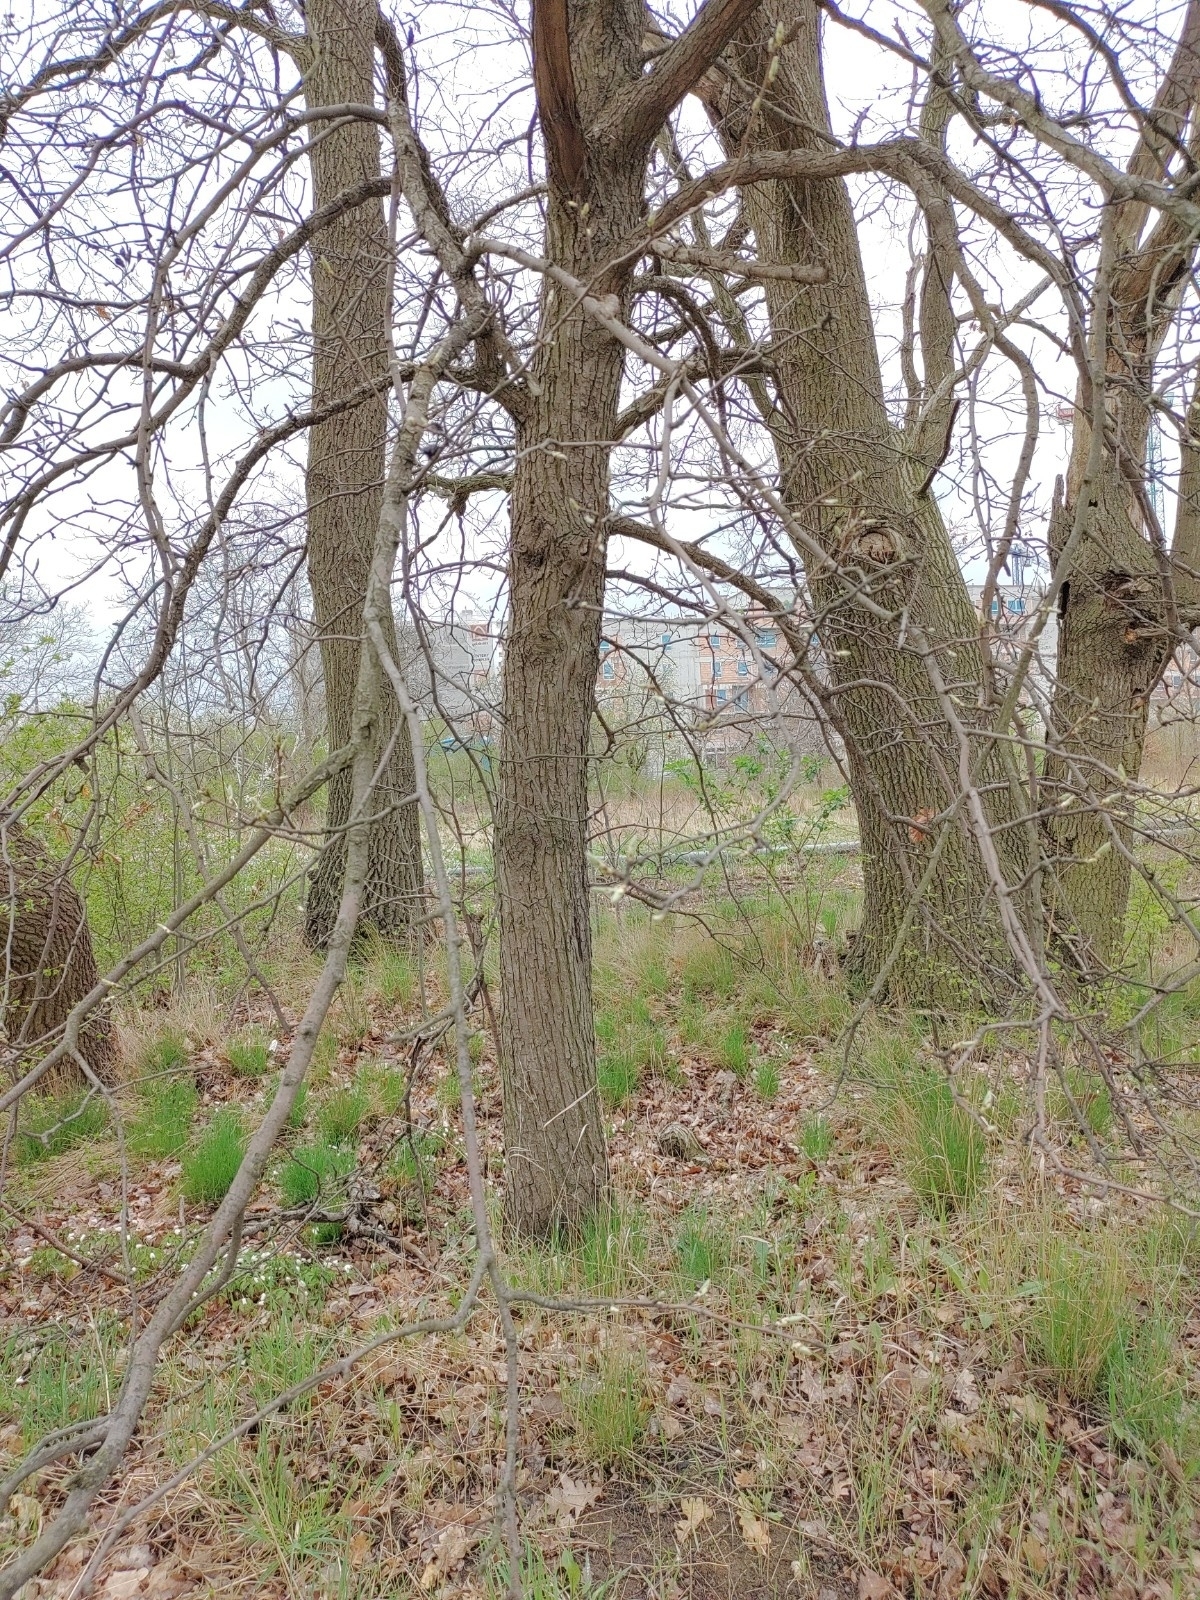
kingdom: Plantae
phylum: Tracheophyta
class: Magnoliopsida
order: Rosales
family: Rosaceae
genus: Pyrus
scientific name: Pyrus communis
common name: Pear
